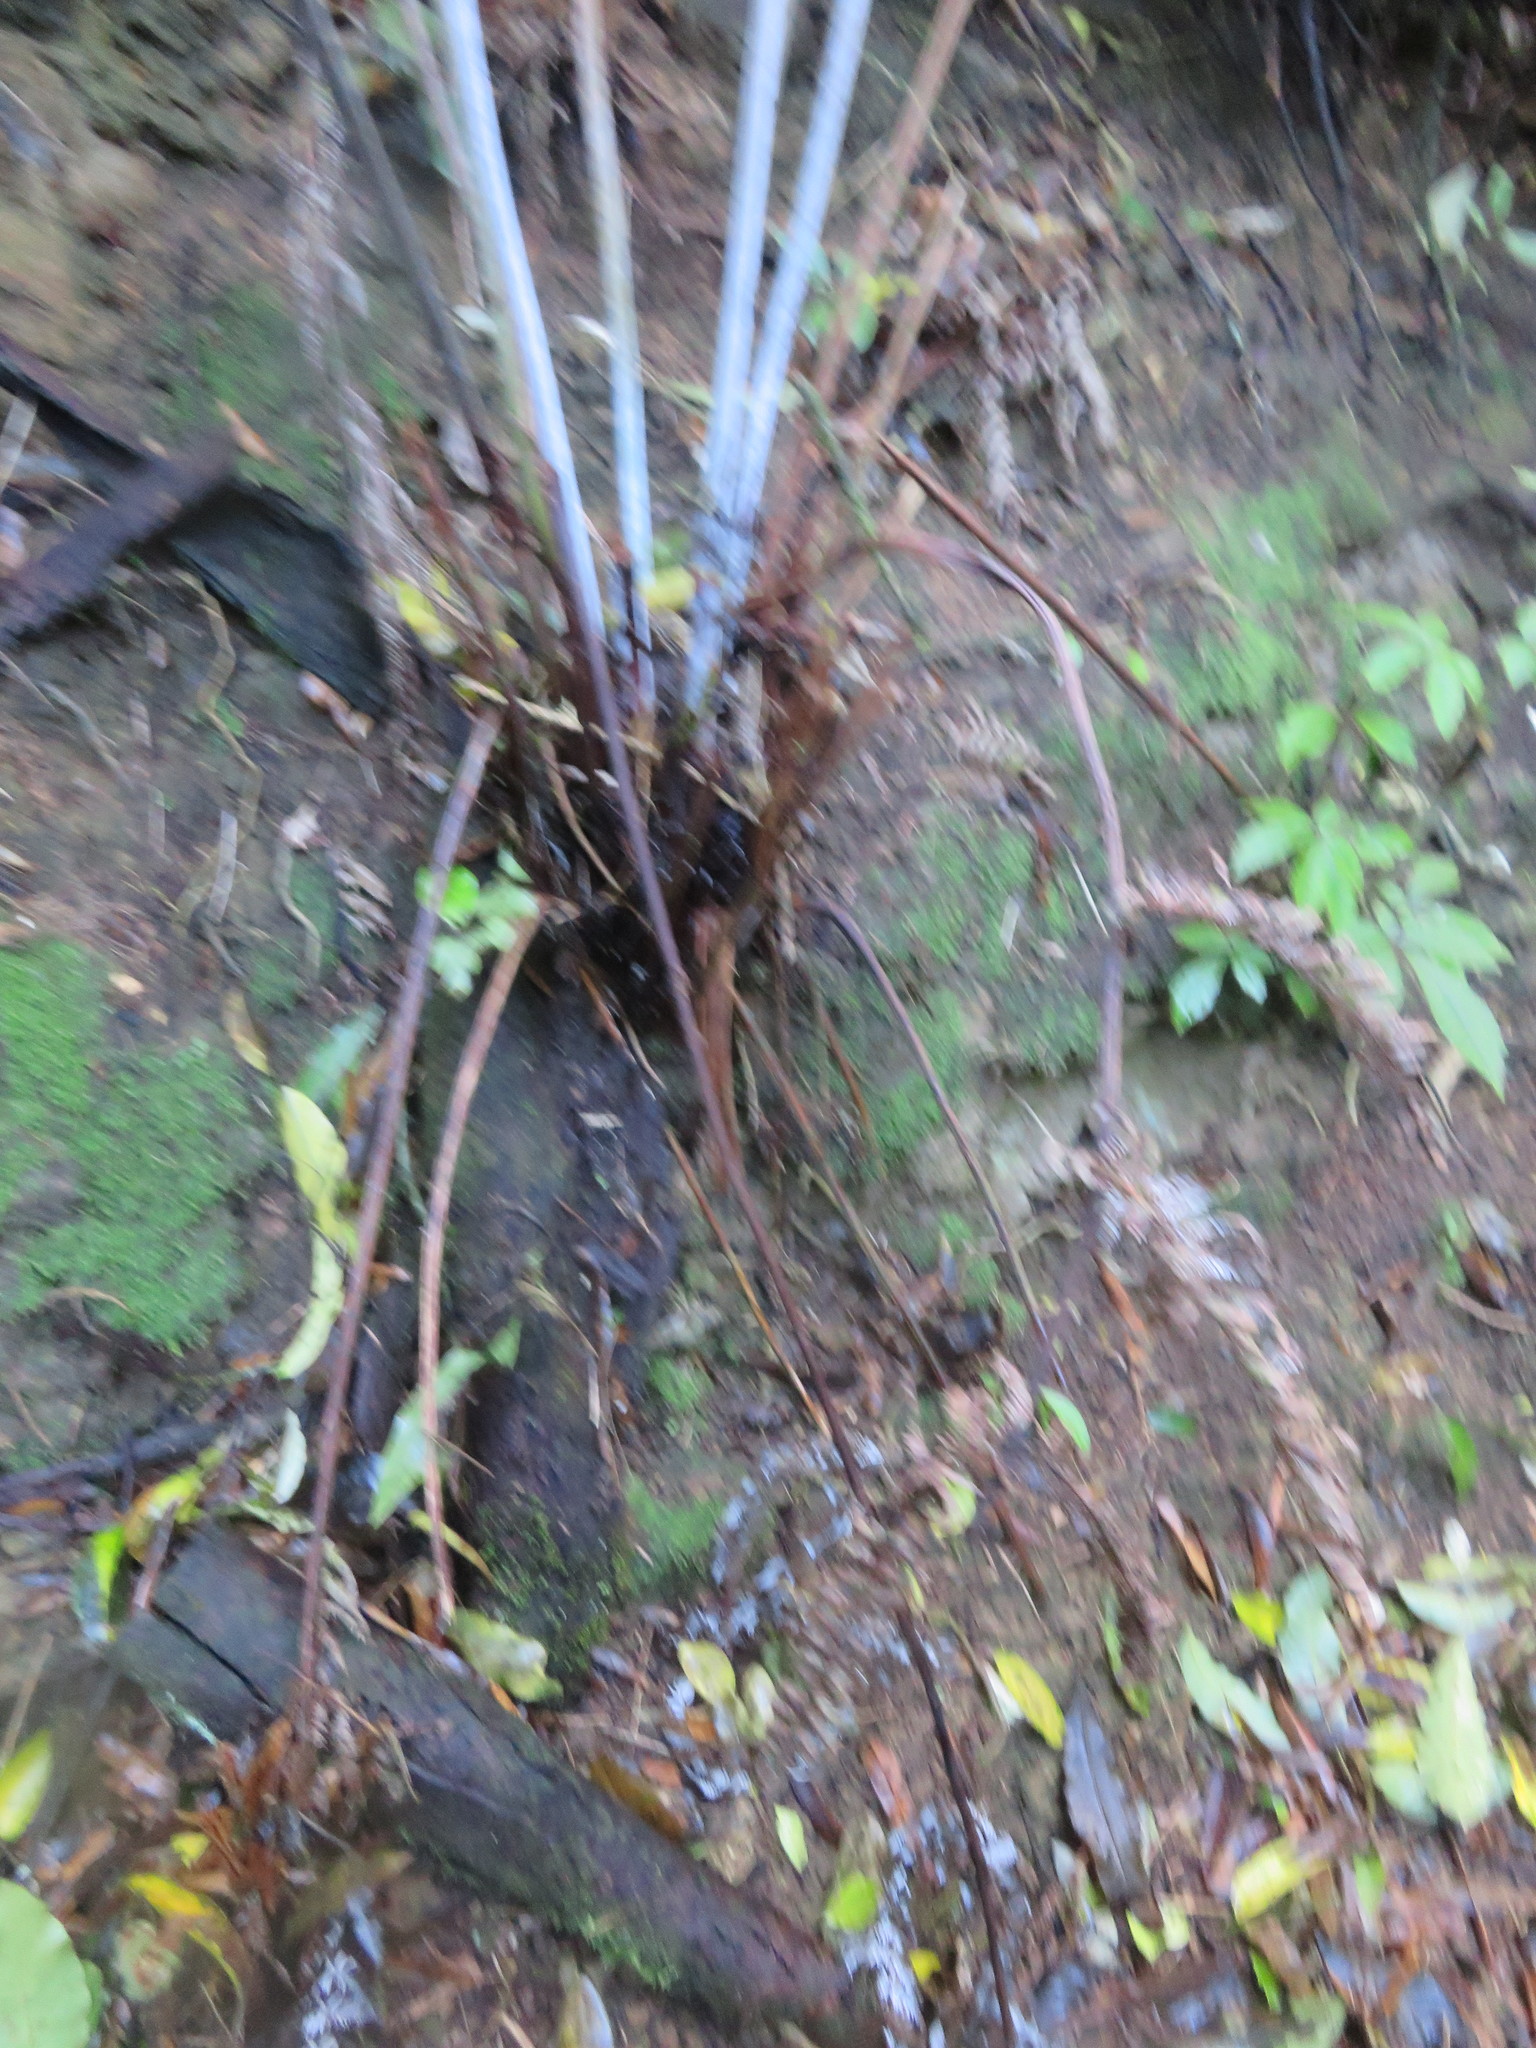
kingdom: Plantae
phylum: Tracheophyta
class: Polypodiopsida
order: Cyatheales
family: Cyatheaceae
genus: Alsophila
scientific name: Alsophila dealbata
